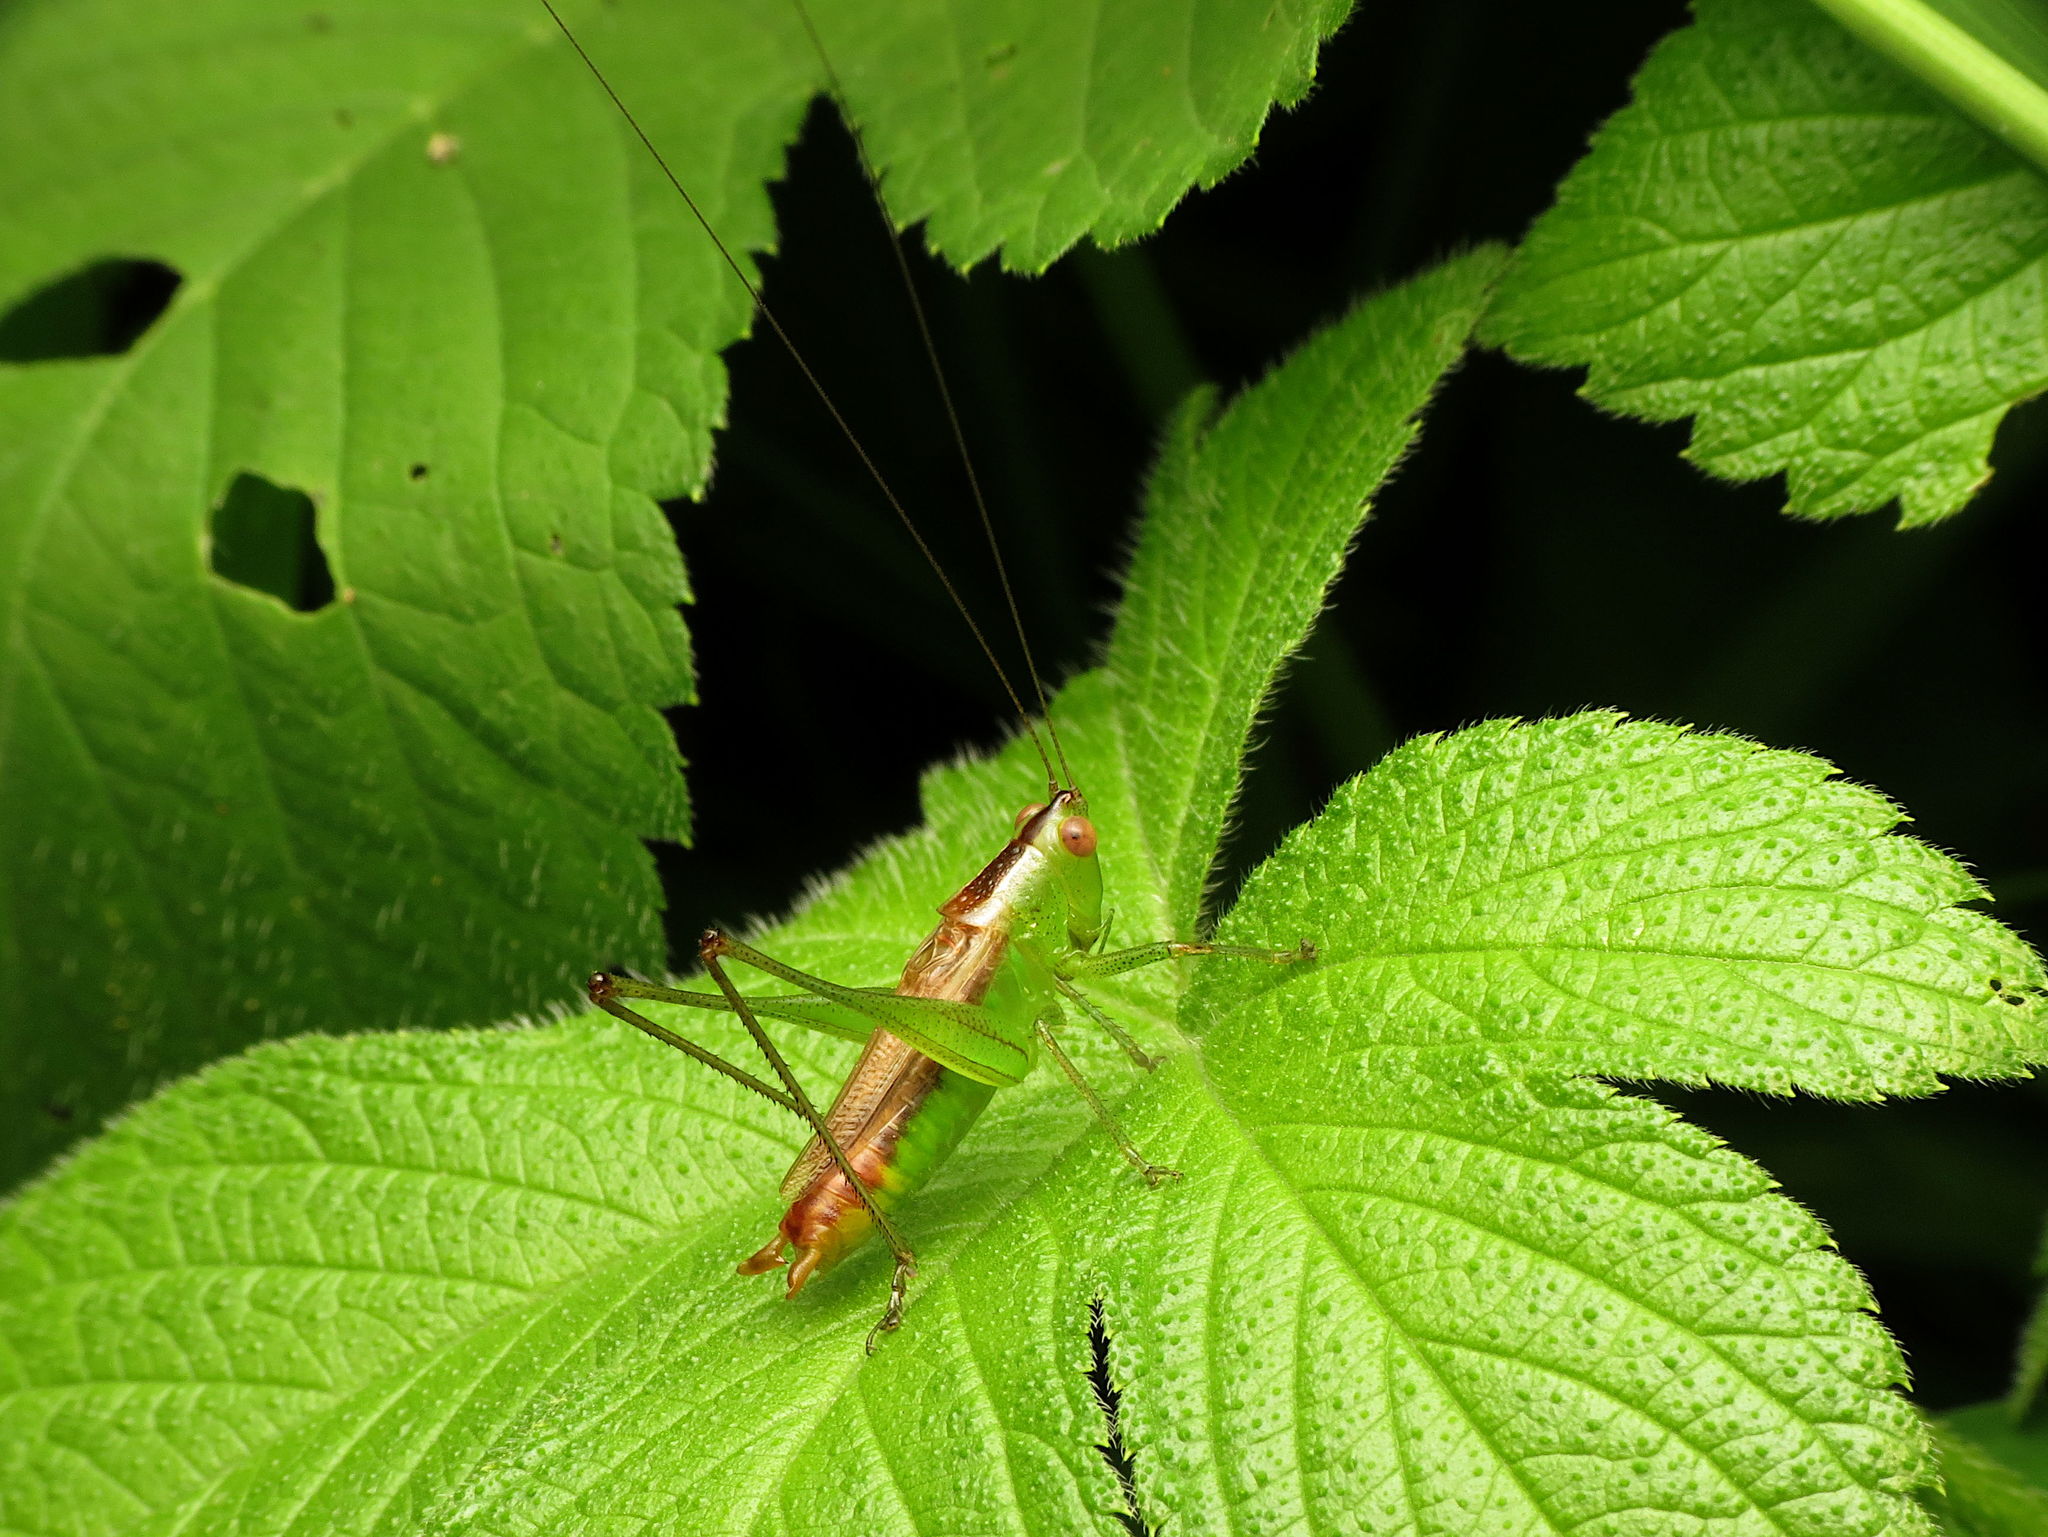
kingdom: Animalia
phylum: Arthropoda
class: Insecta
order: Orthoptera
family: Tettigoniidae
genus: Conocephalus
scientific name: Conocephalus brevipennis
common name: Short-winged meadow katydid
